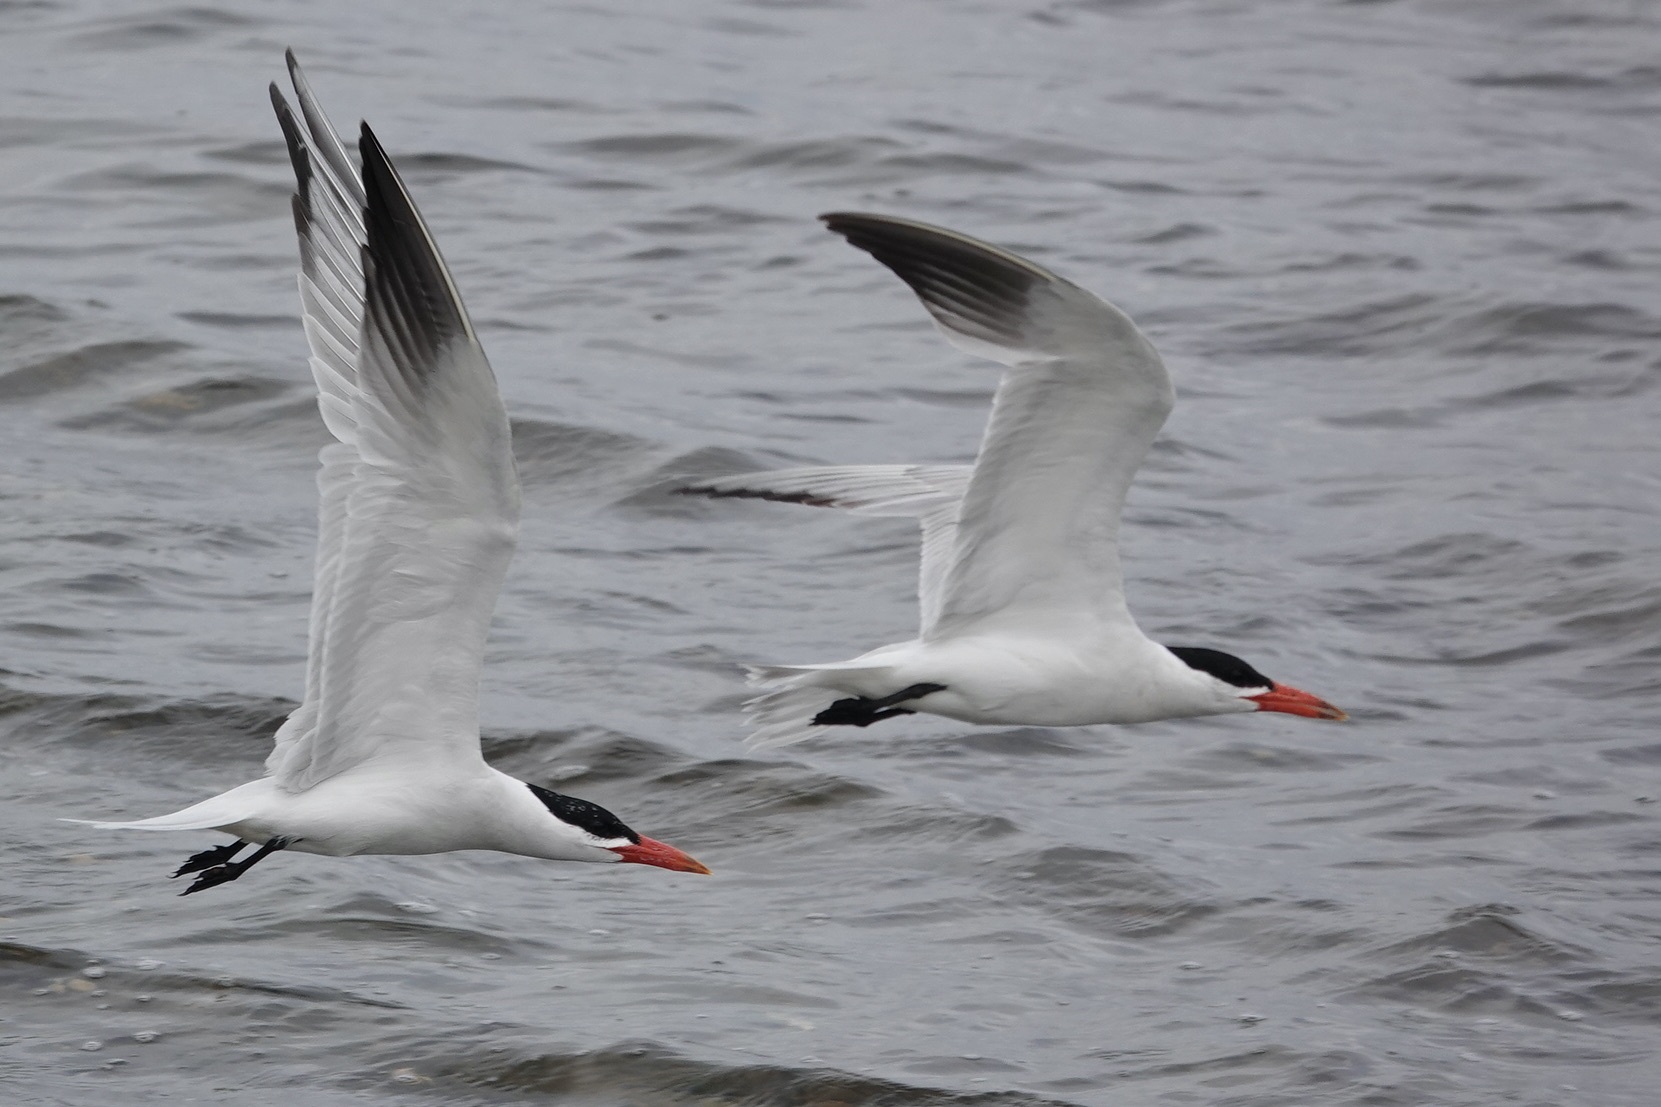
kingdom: Animalia
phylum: Chordata
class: Aves
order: Charadriiformes
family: Laridae
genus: Hydroprogne
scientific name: Hydroprogne caspia
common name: Caspian tern
